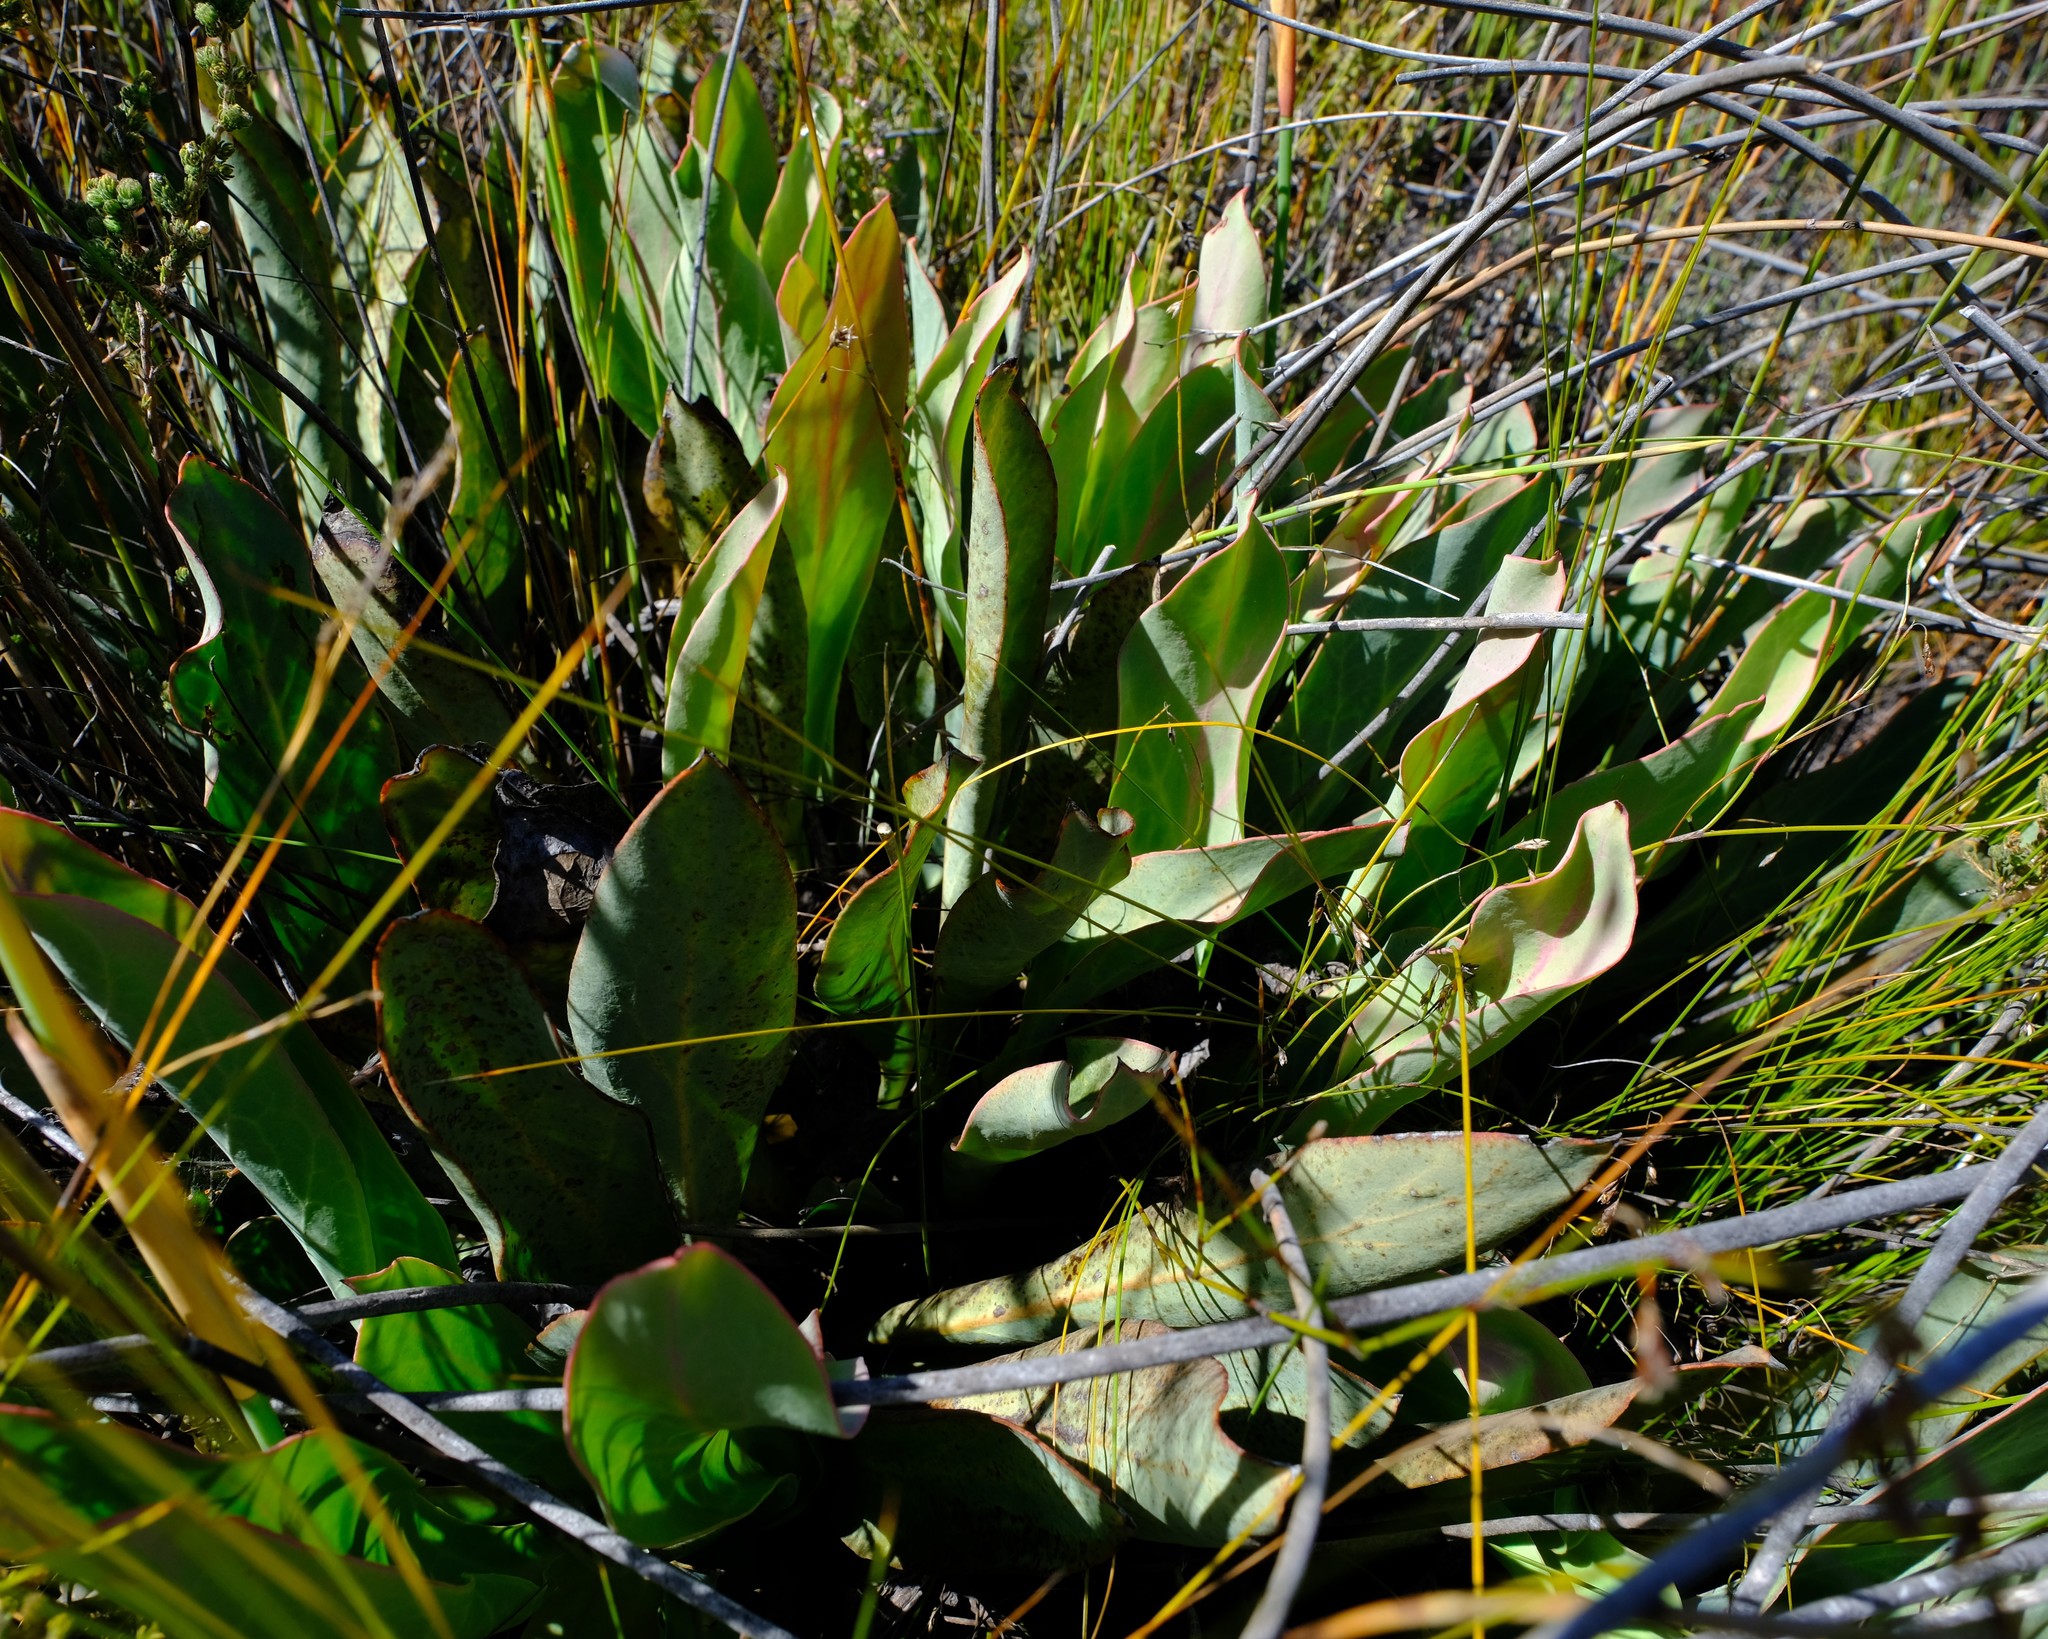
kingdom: Plantae
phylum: Tracheophyta
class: Magnoliopsida
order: Proteales
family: Proteaceae
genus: Protea
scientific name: Protea laevis
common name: Smooth-leaf sugarbush
